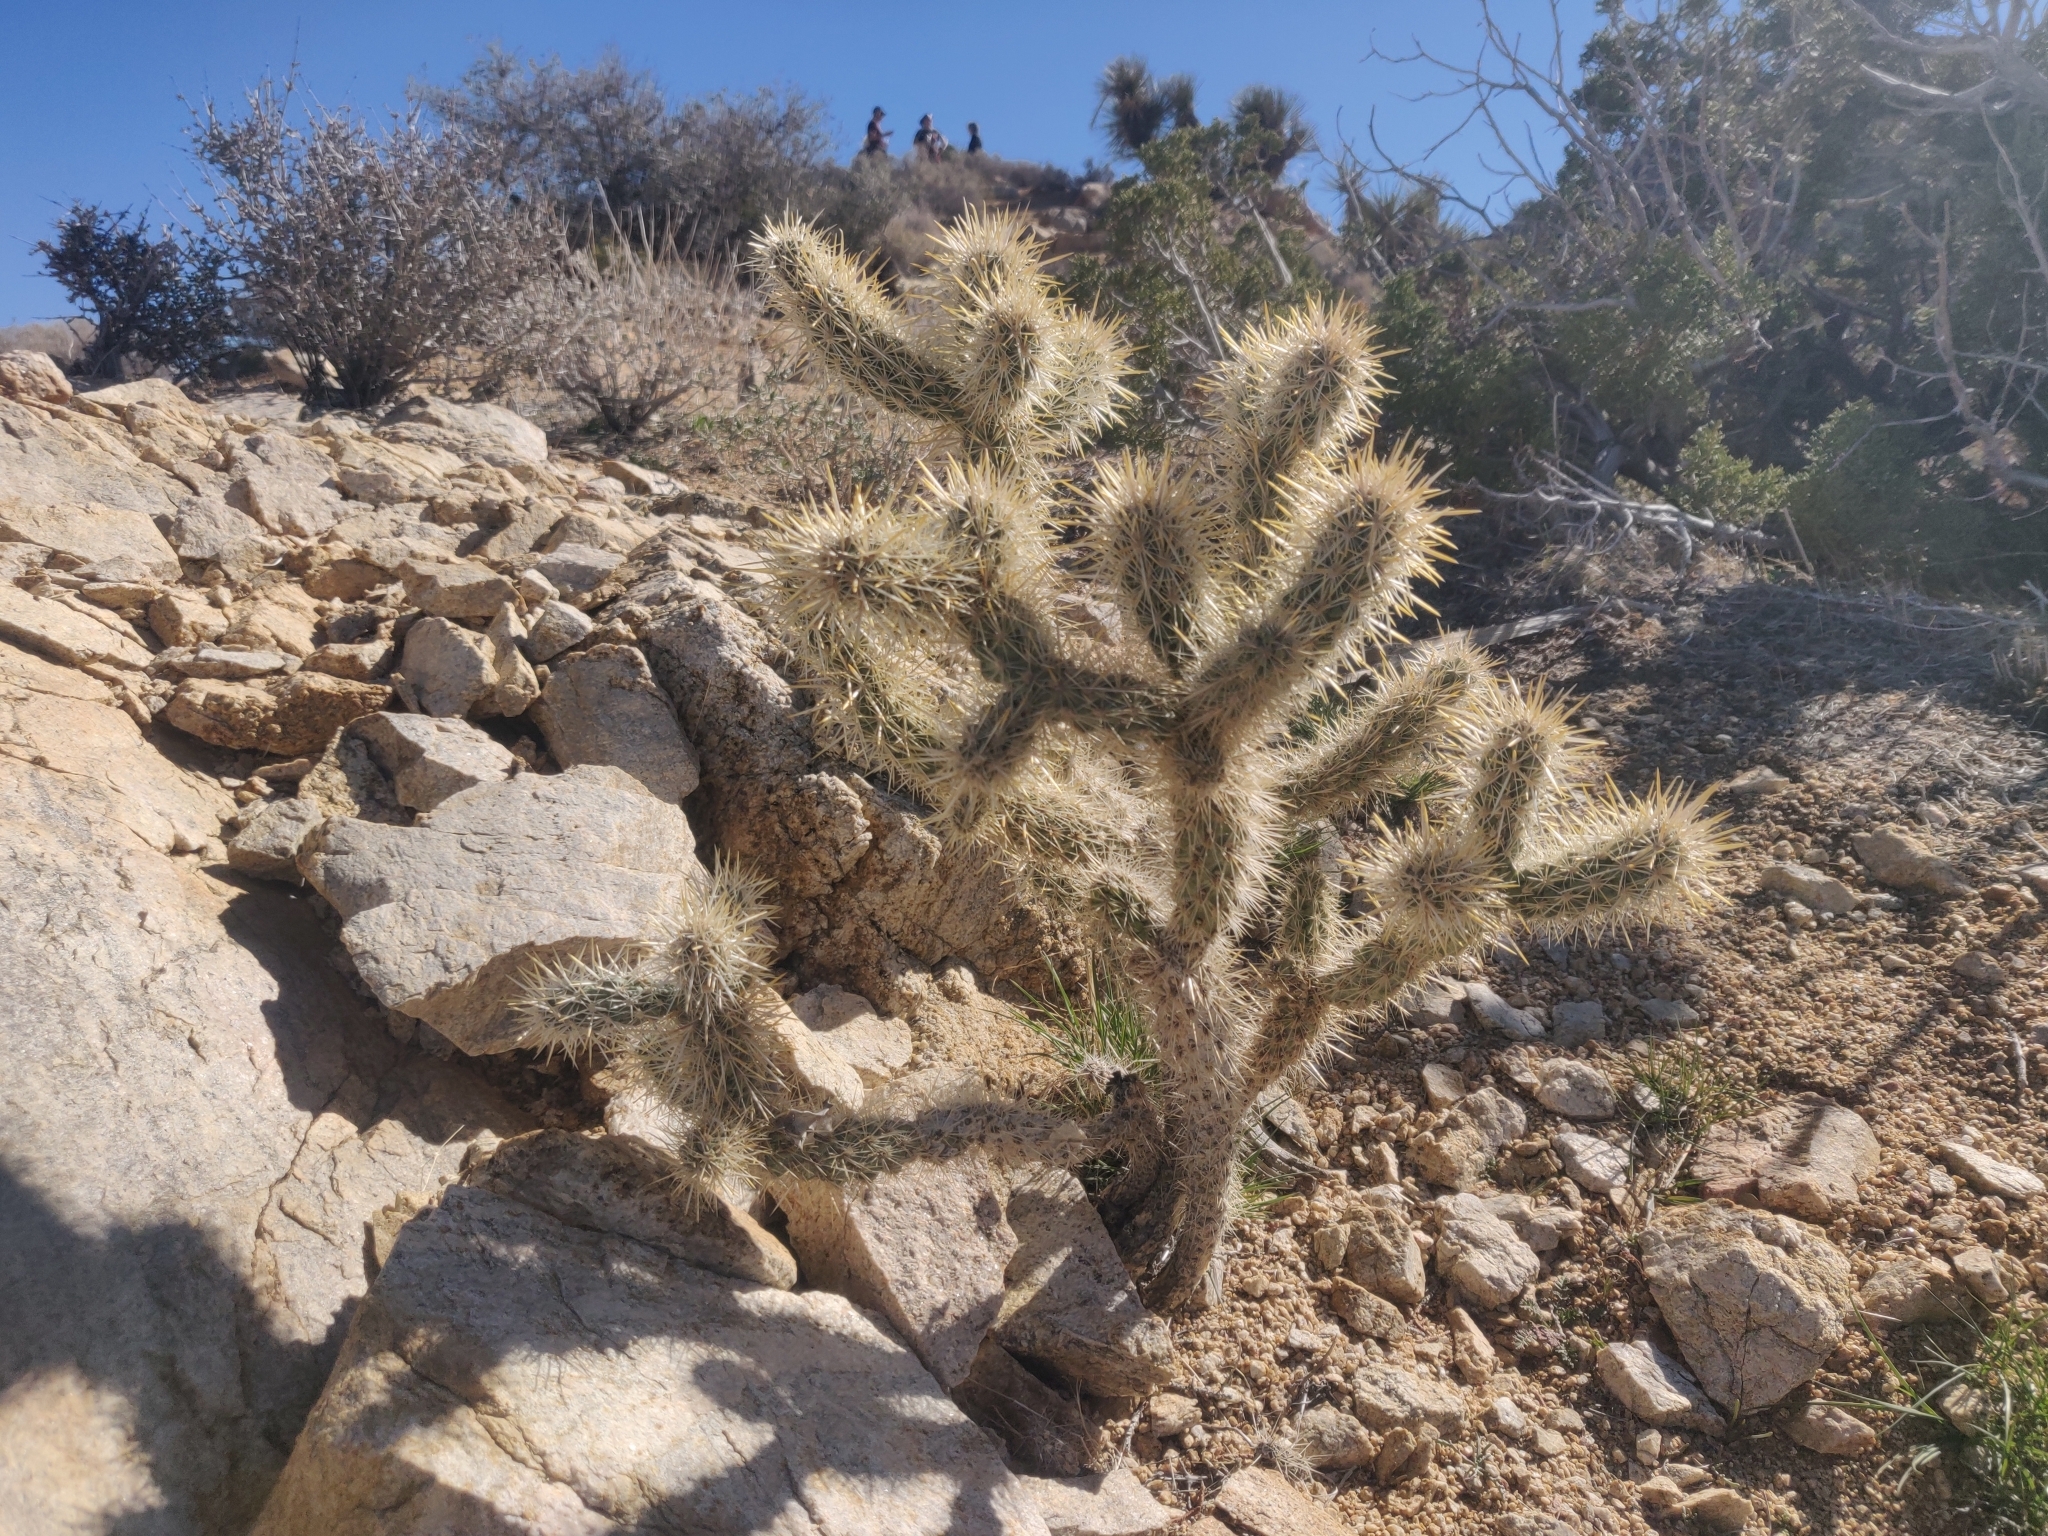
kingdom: Plantae
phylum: Tracheophyta
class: Magnoliopsida
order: Caryophyllales
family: Cactaceae
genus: Cylindropuntia
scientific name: Cylindropuntia echinocarpa
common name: Ground cholla
